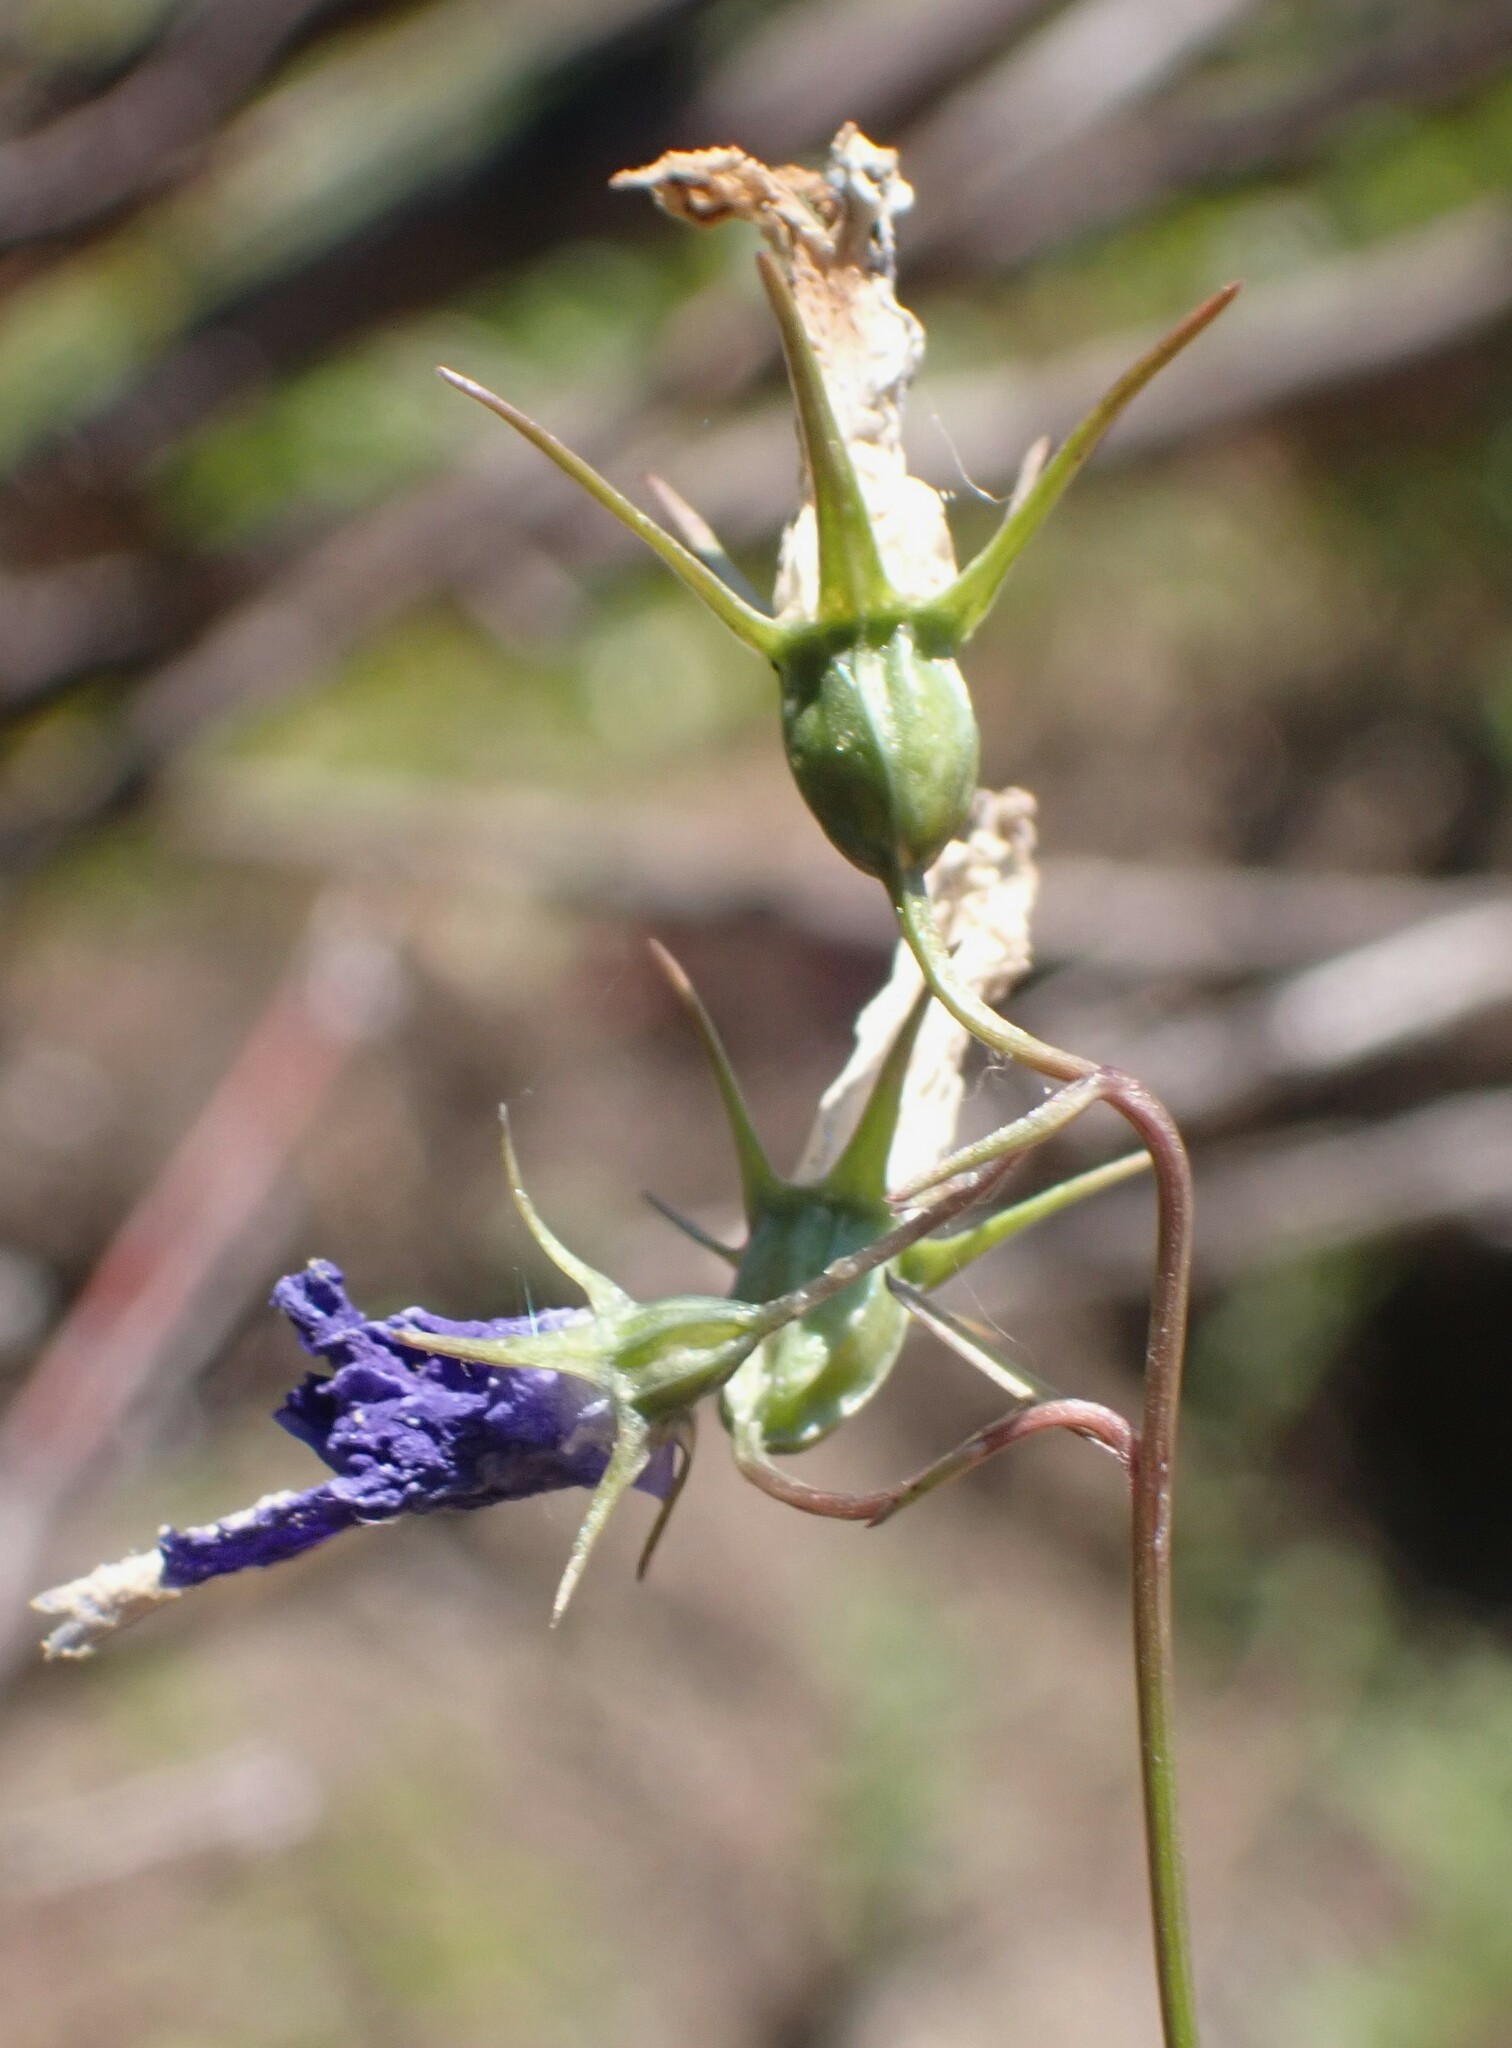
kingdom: Plantae
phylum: Tracheophyta
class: Magnoliopsida
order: Asterales
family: Campanulaceae
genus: Campanula
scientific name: Campanula alaskana
